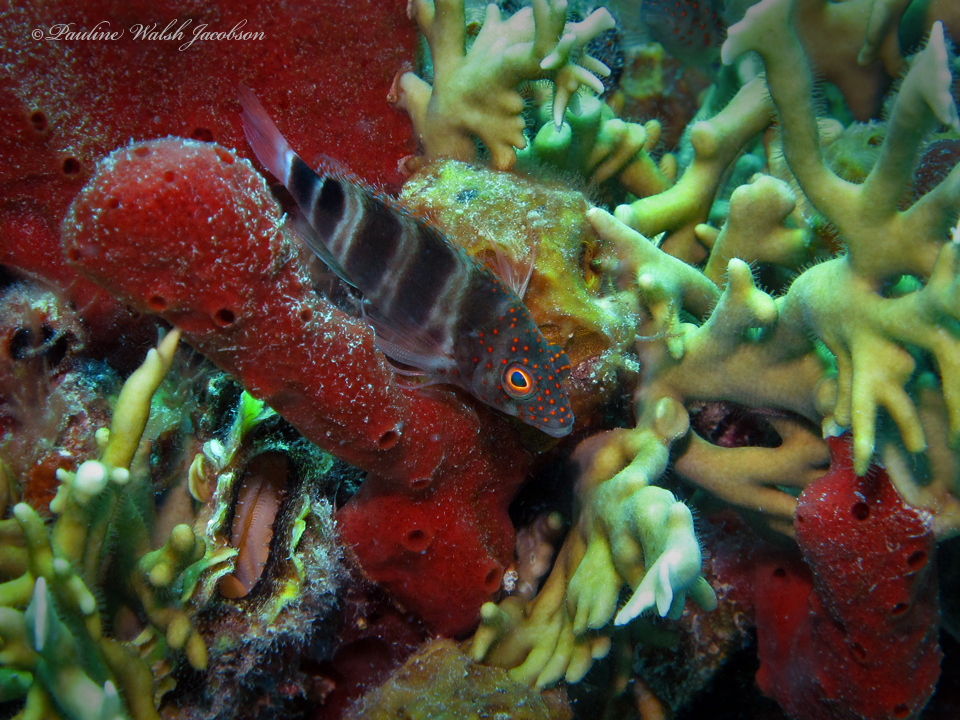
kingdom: Animalia
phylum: Chordata
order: Perciformes
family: Cirrhitidae
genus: Amblycirrhitus
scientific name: Amblycirrhitus pinos
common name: Redspotted hawkfish
